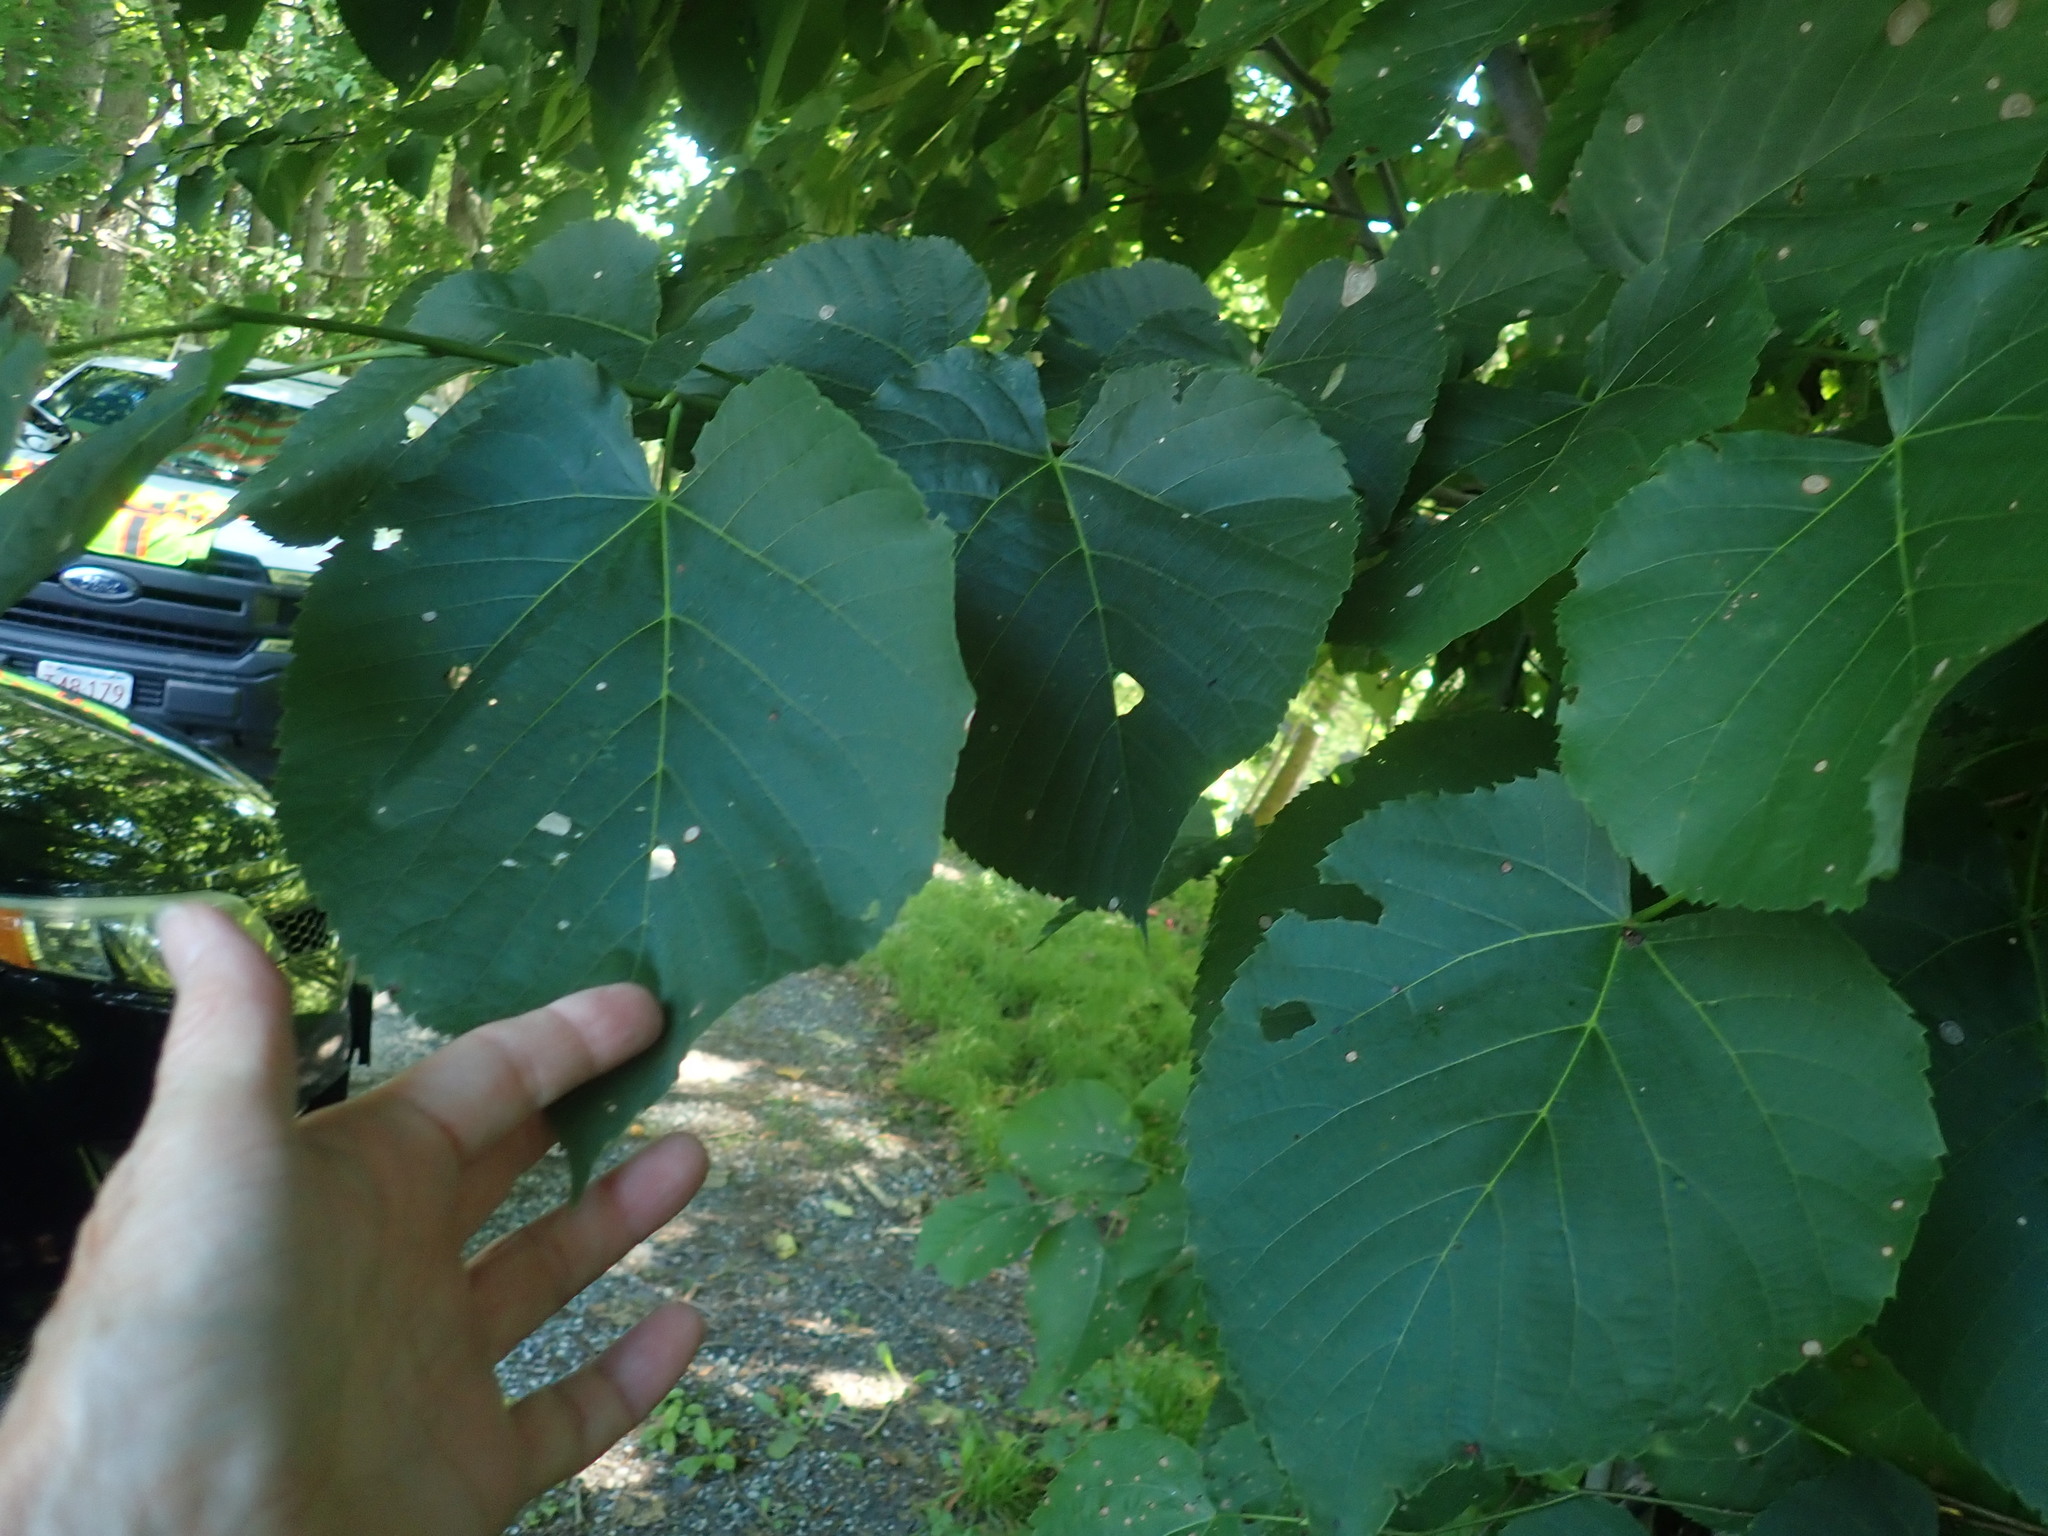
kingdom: Plantae
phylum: Tracheophyta
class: Magnoliopsida
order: Malvales
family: Malvaceae
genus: Tilia
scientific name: Tilia americana
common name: Basswood
